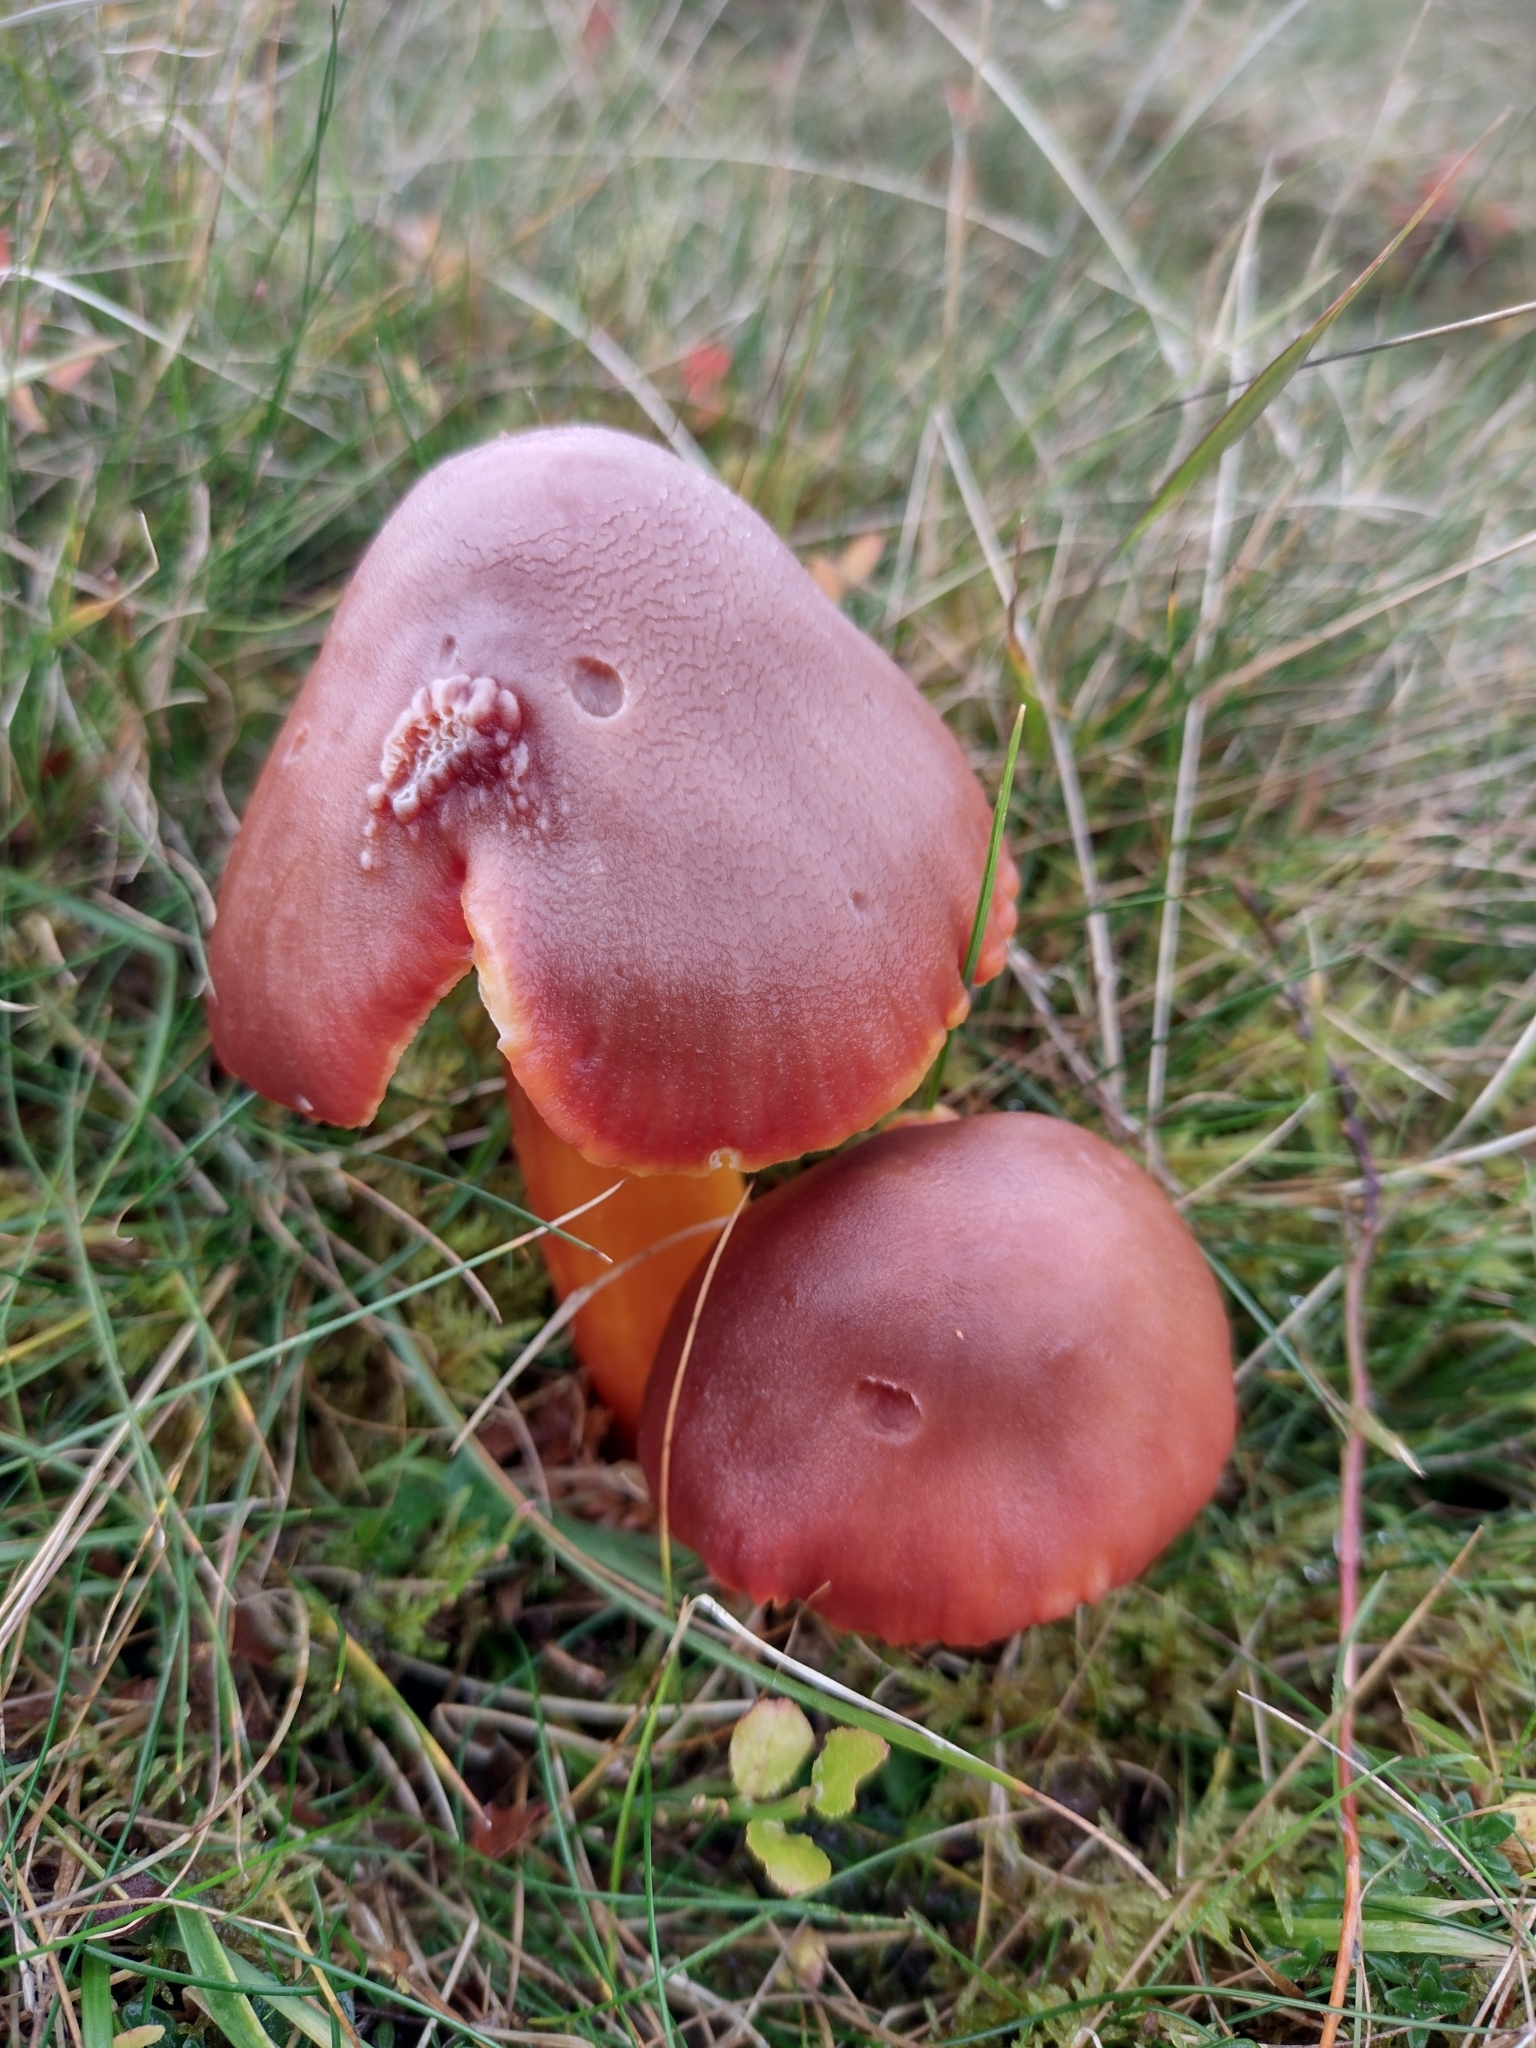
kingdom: Fungi
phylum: Basidiomycota
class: Agaricomycetes
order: Agaricales
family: Hygrophoraceae
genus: Hygrocybe
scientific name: Hygrocybe punicea
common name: Crimson waxcap
